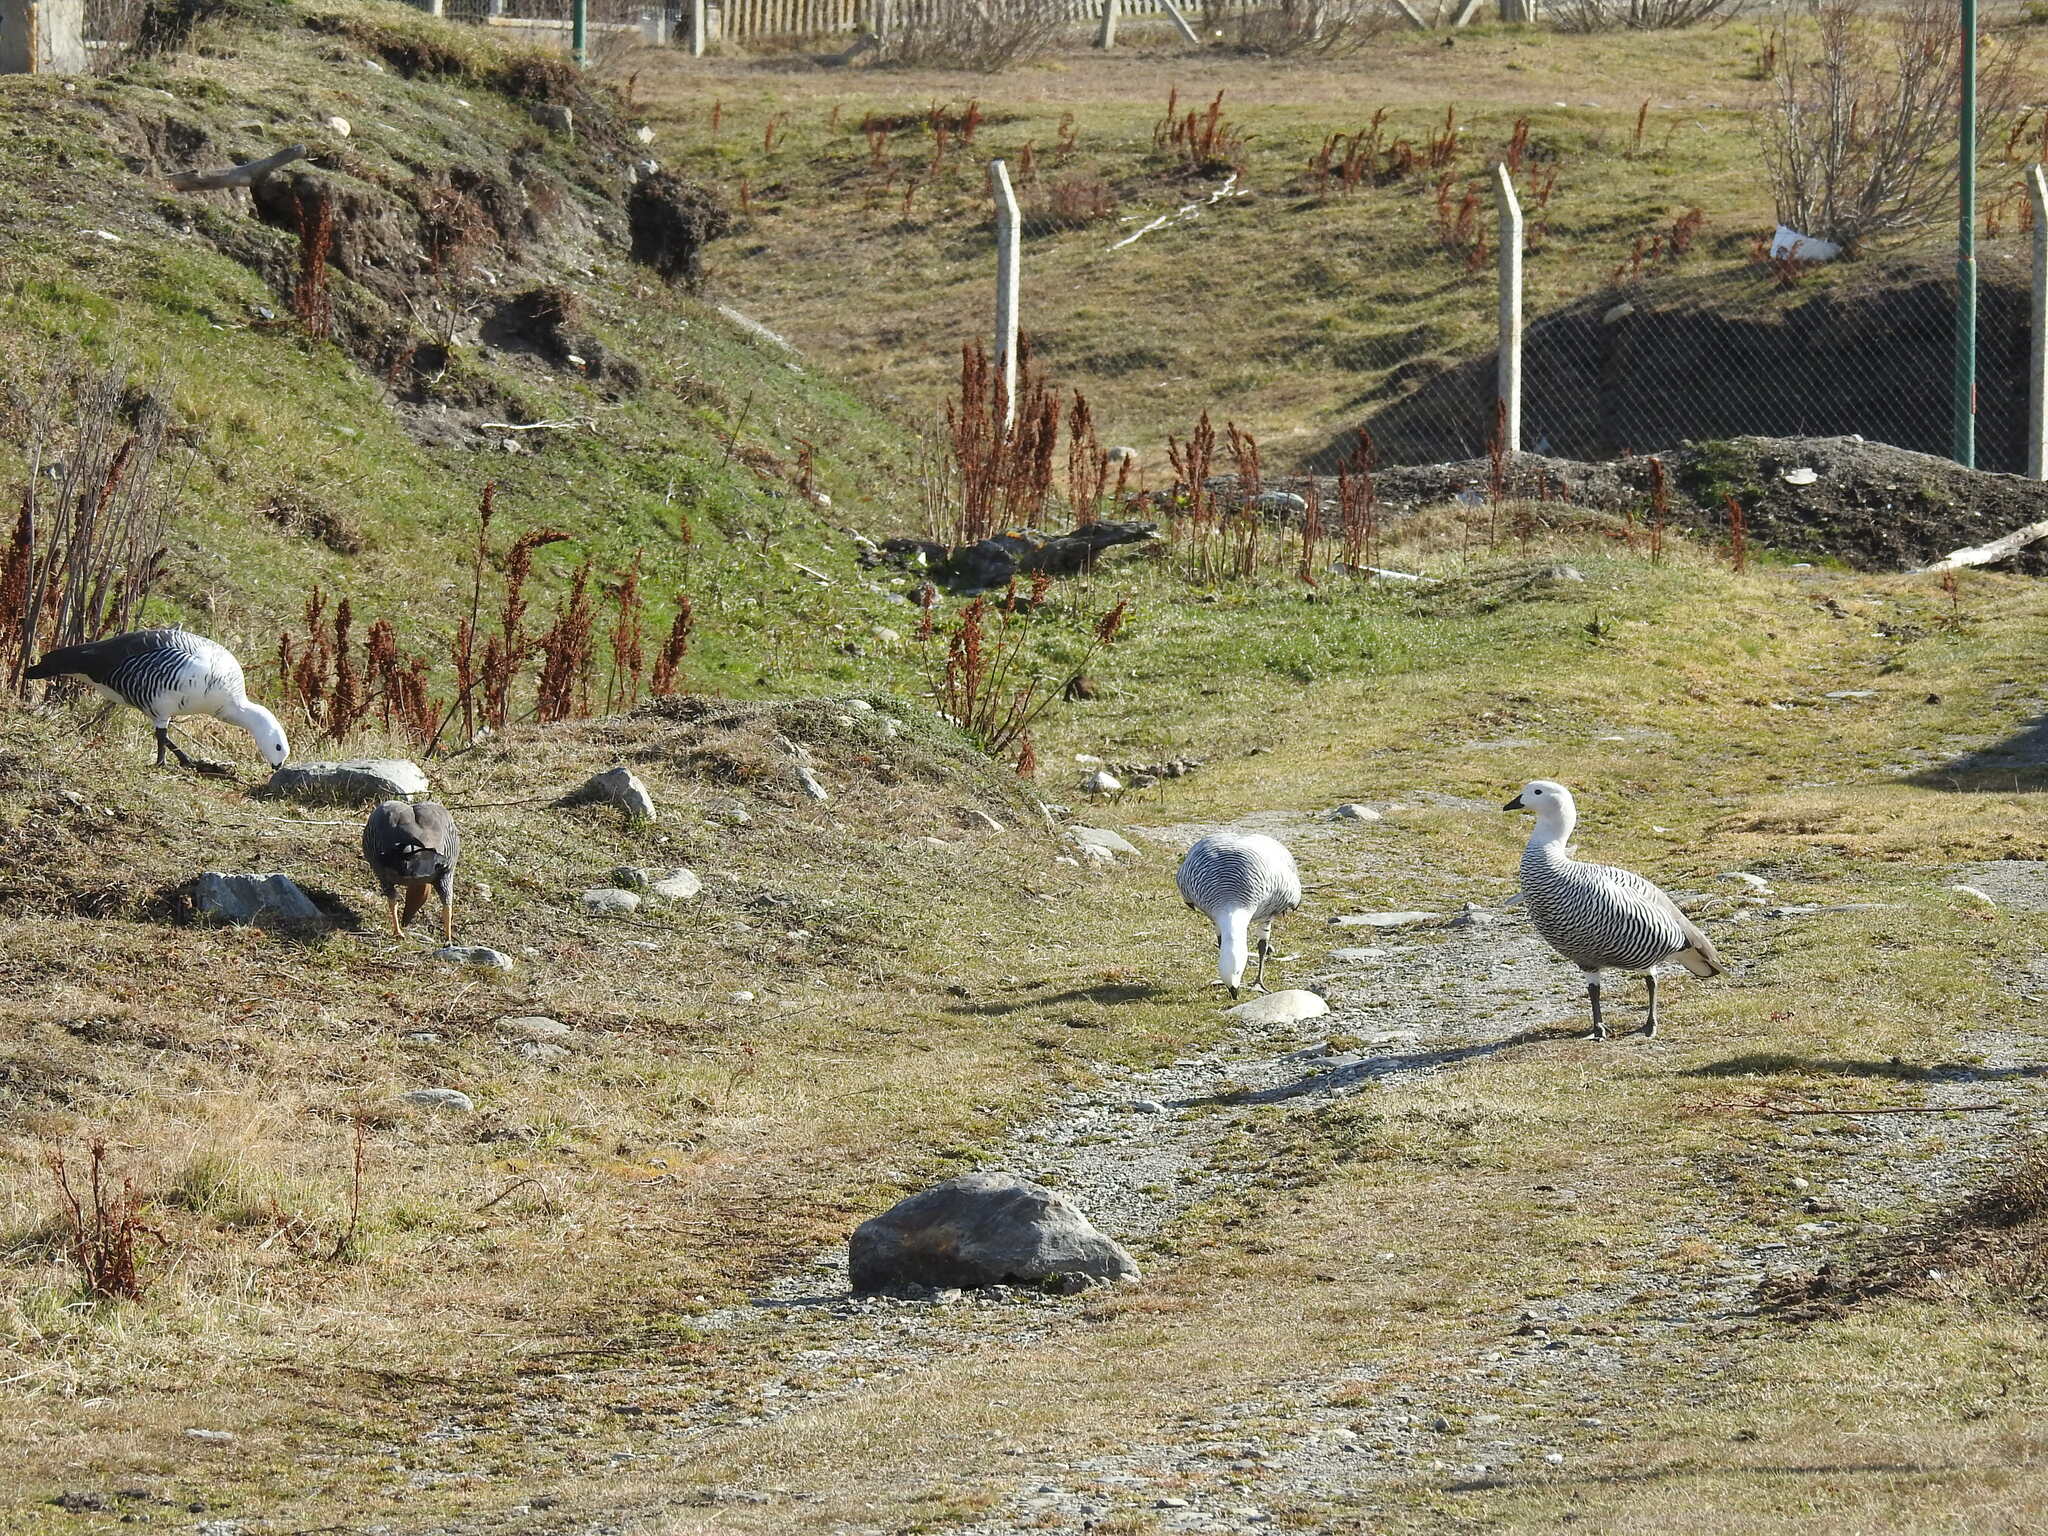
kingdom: Animalia
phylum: Chordata
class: Aves
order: Anseriformes
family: Anatidae
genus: Chloephaga
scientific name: Chloephaga picta
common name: Upland goose
